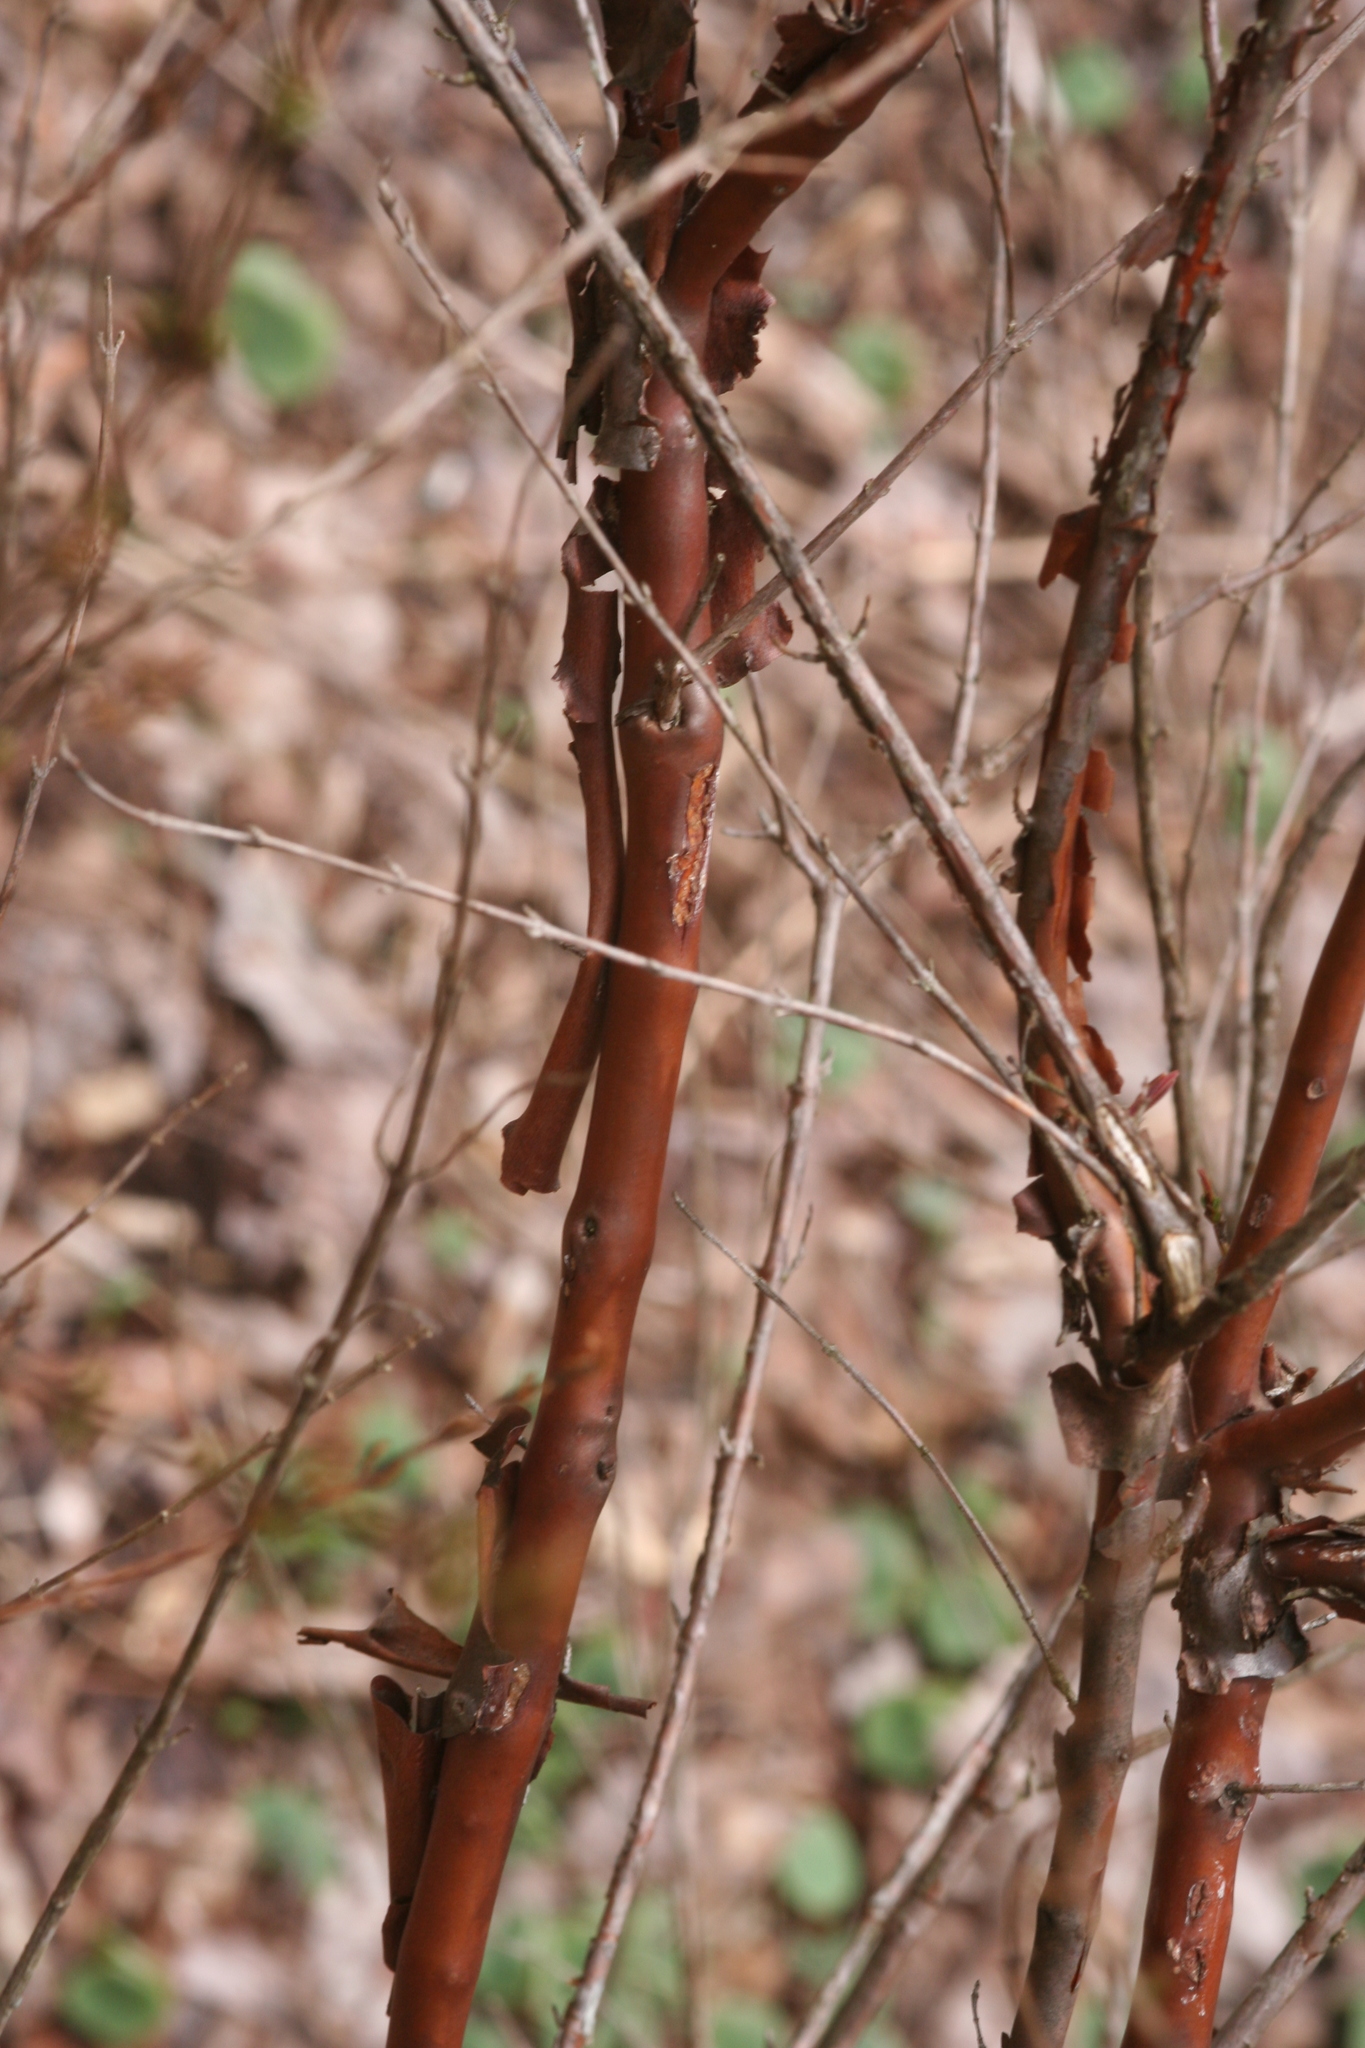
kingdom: Plantae
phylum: Tracheophyta
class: Magnoliopsida
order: Malvales
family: Thymelaeaceae
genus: Dirca
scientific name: Dirca palustris
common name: Leatherwood
